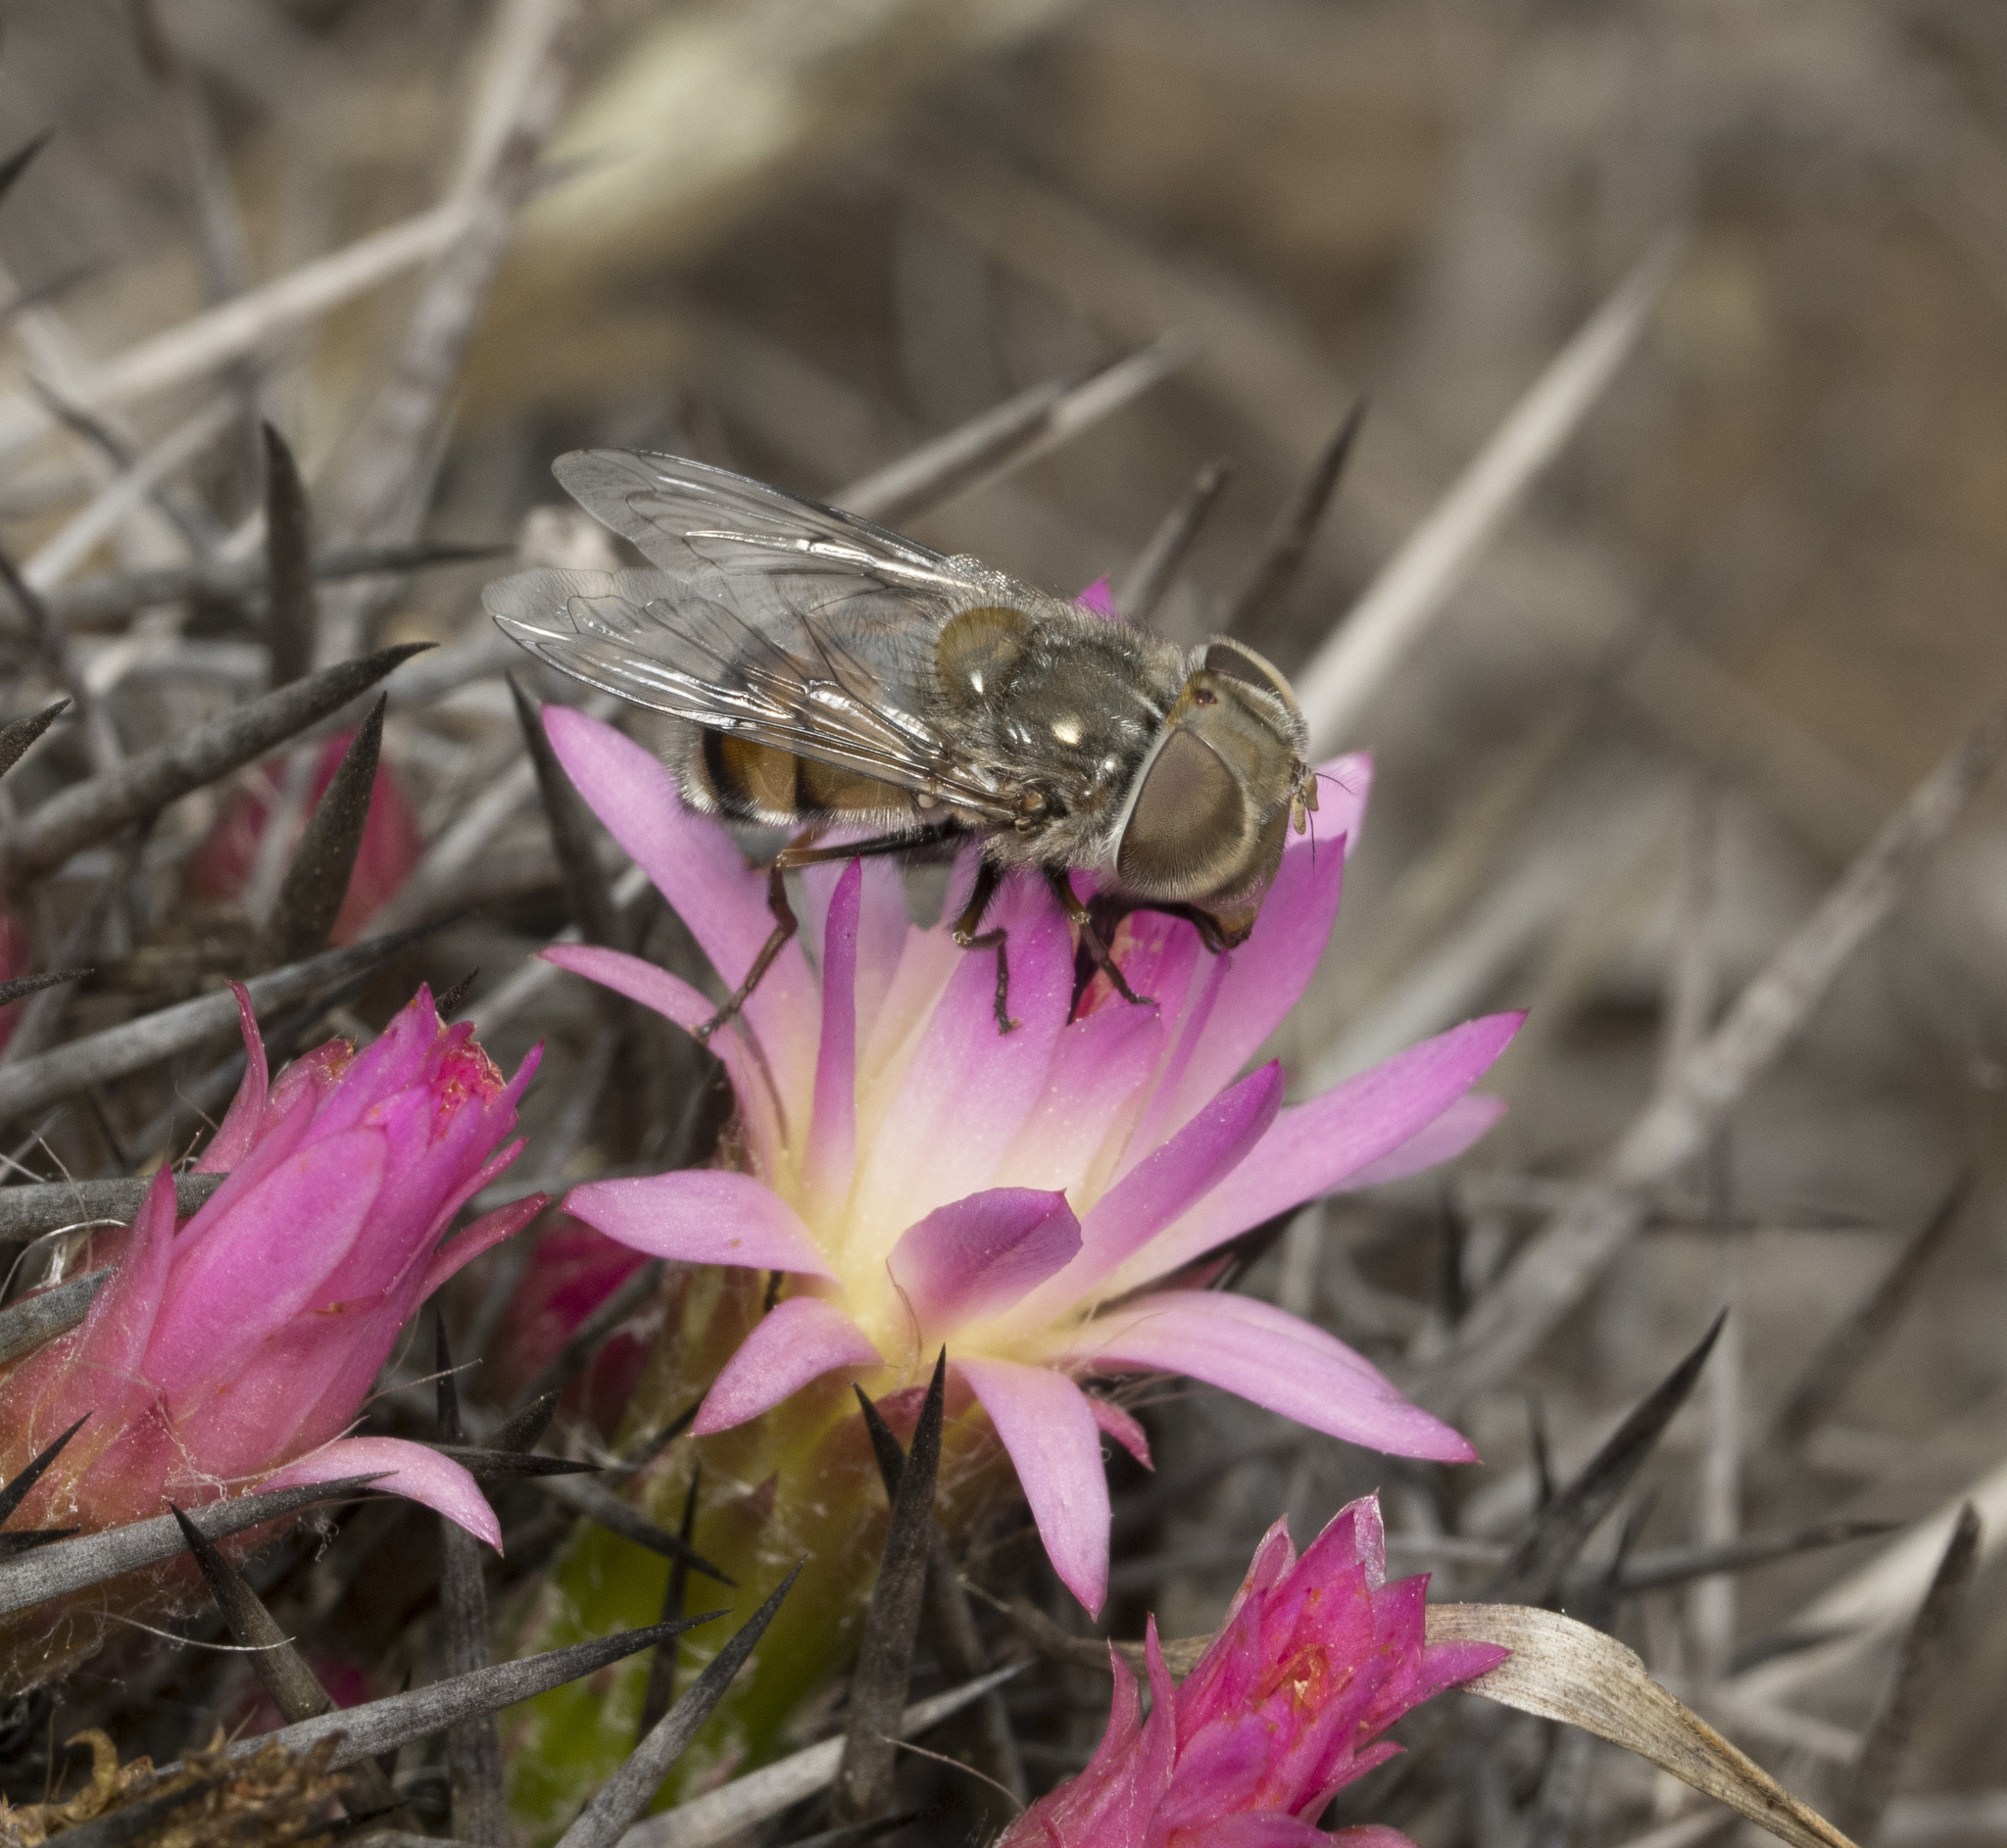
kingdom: Animalia
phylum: Arthropoda
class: Insecta
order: Diptera
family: Syrphidae
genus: Copestylum
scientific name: Copestylum longirostre
